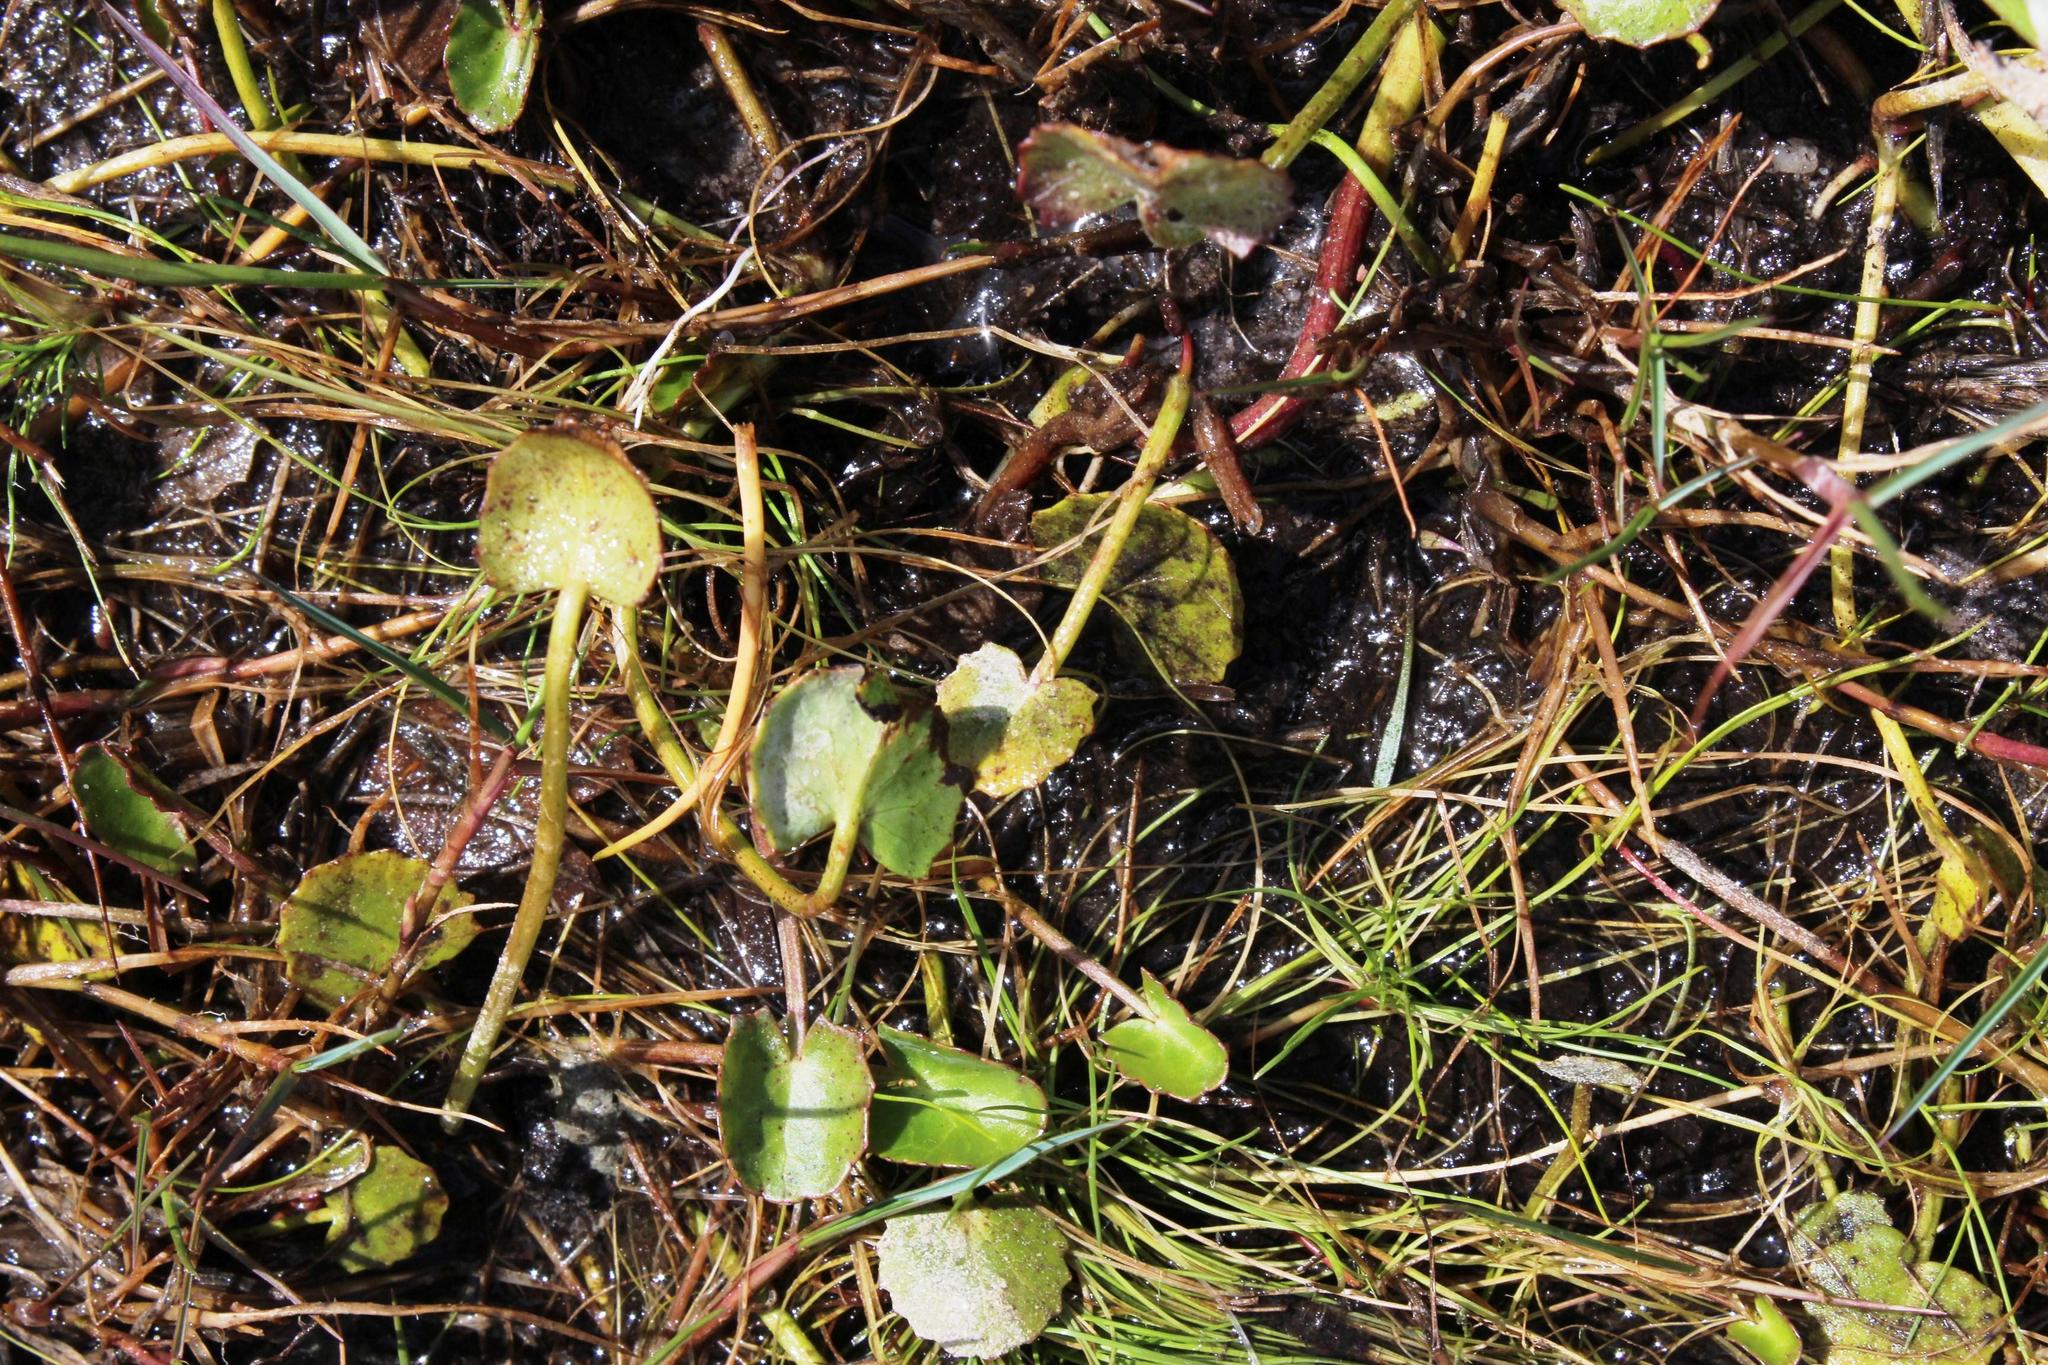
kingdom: Plantae
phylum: Tracheophyta
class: Magnoliopsida
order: Apiales
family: Apiaceae
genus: Centella
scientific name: Centella asiatica
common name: Spadeleaf
